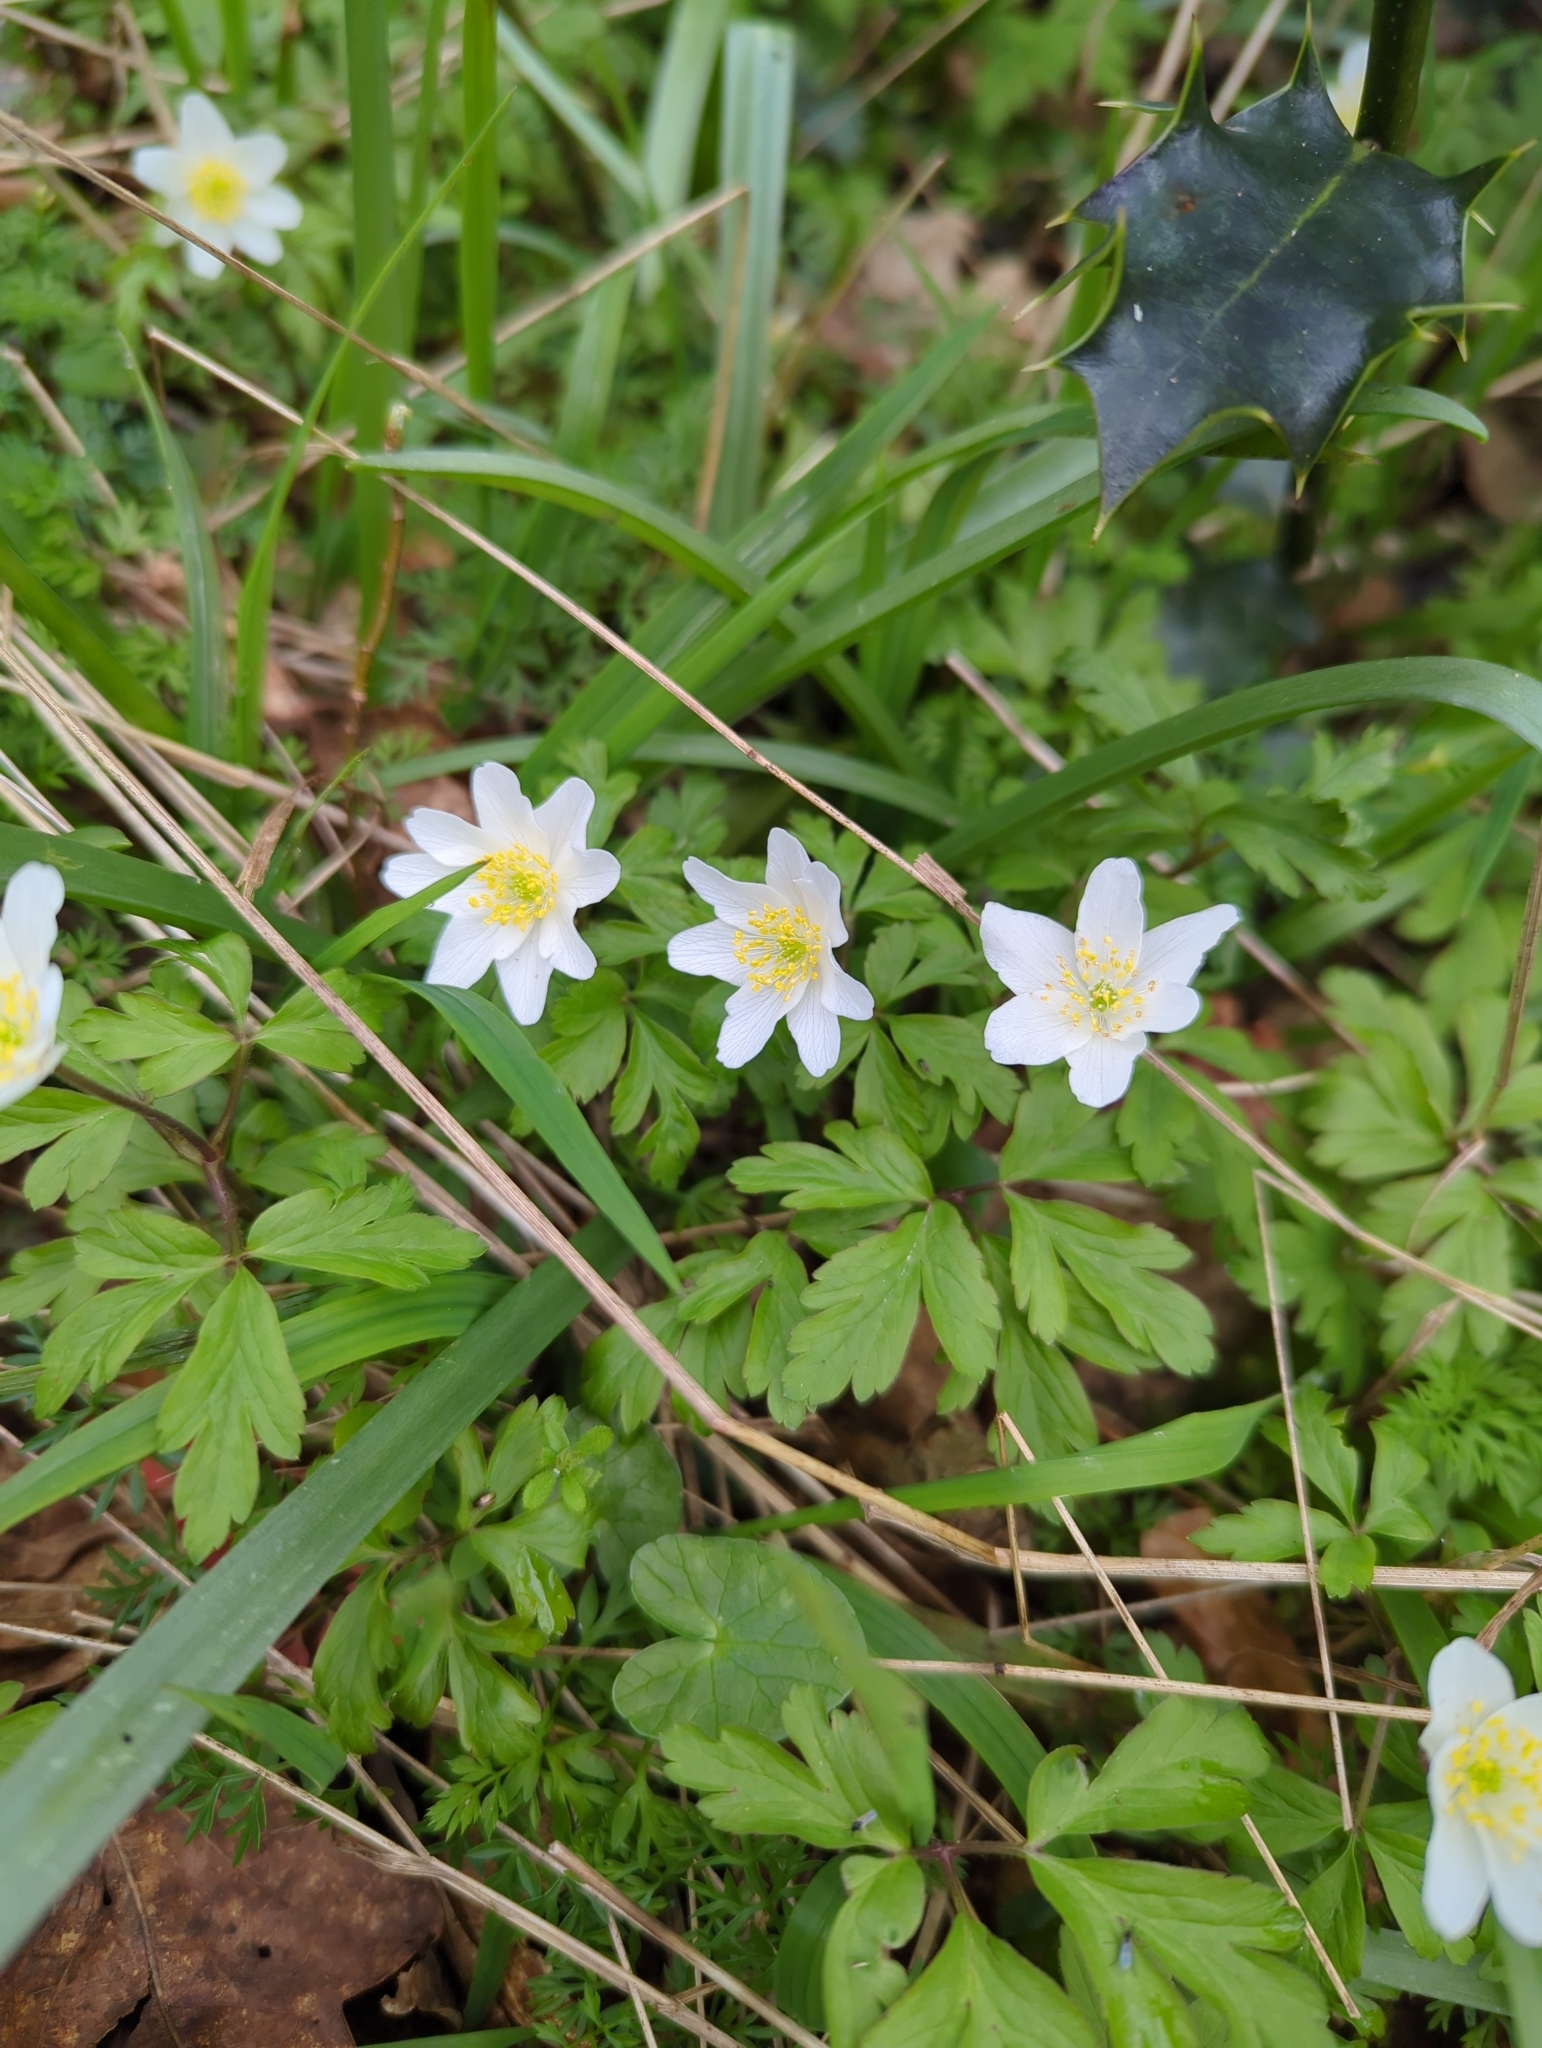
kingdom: Plantae
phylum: Tracheophyta
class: Magnoliopsida
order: Ranunculales
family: Ranunculaceae
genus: Anemone
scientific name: Anemone nemorosa
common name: Wood anemone
